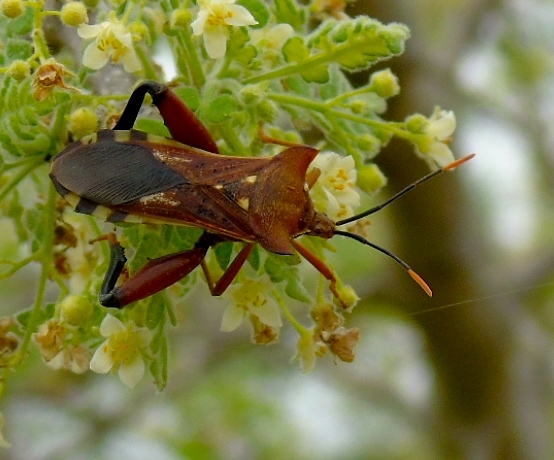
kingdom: Animalia
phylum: Arthropoda
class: Insecta
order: Hemiptera
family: Coreidae
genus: Mozena
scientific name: Mozena lunata
